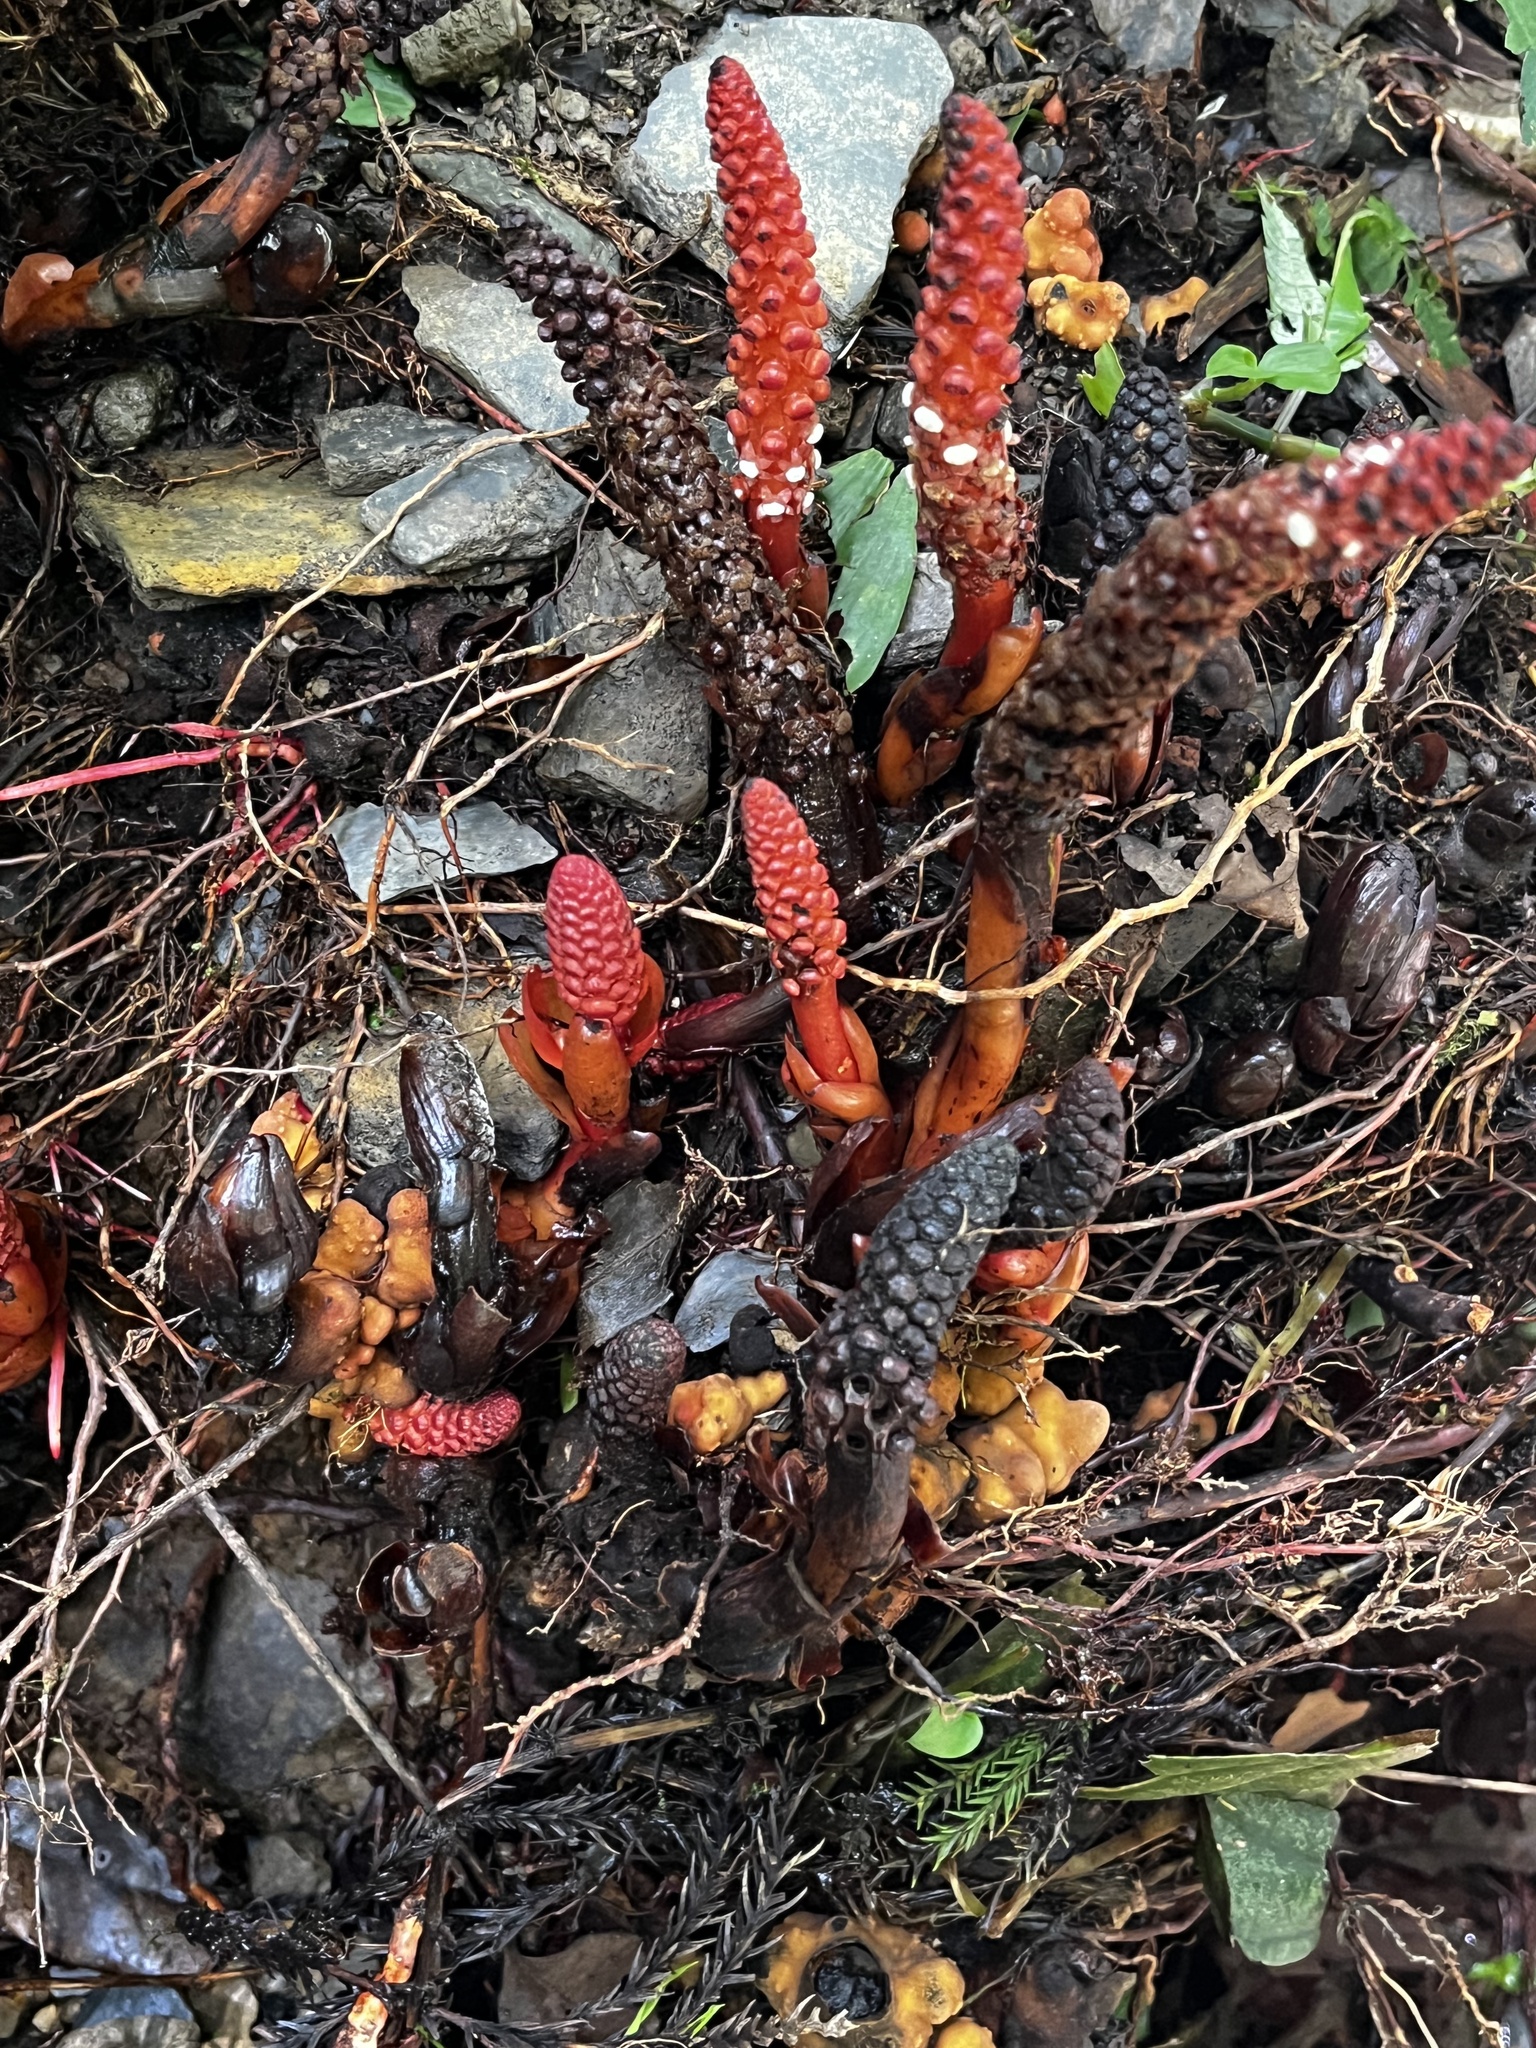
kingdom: Plantae
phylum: Tracheophyta
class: Magnoliopsida
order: Santalales
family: Balanophoraceae
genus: Balanophora
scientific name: Balanophora laxiflora
